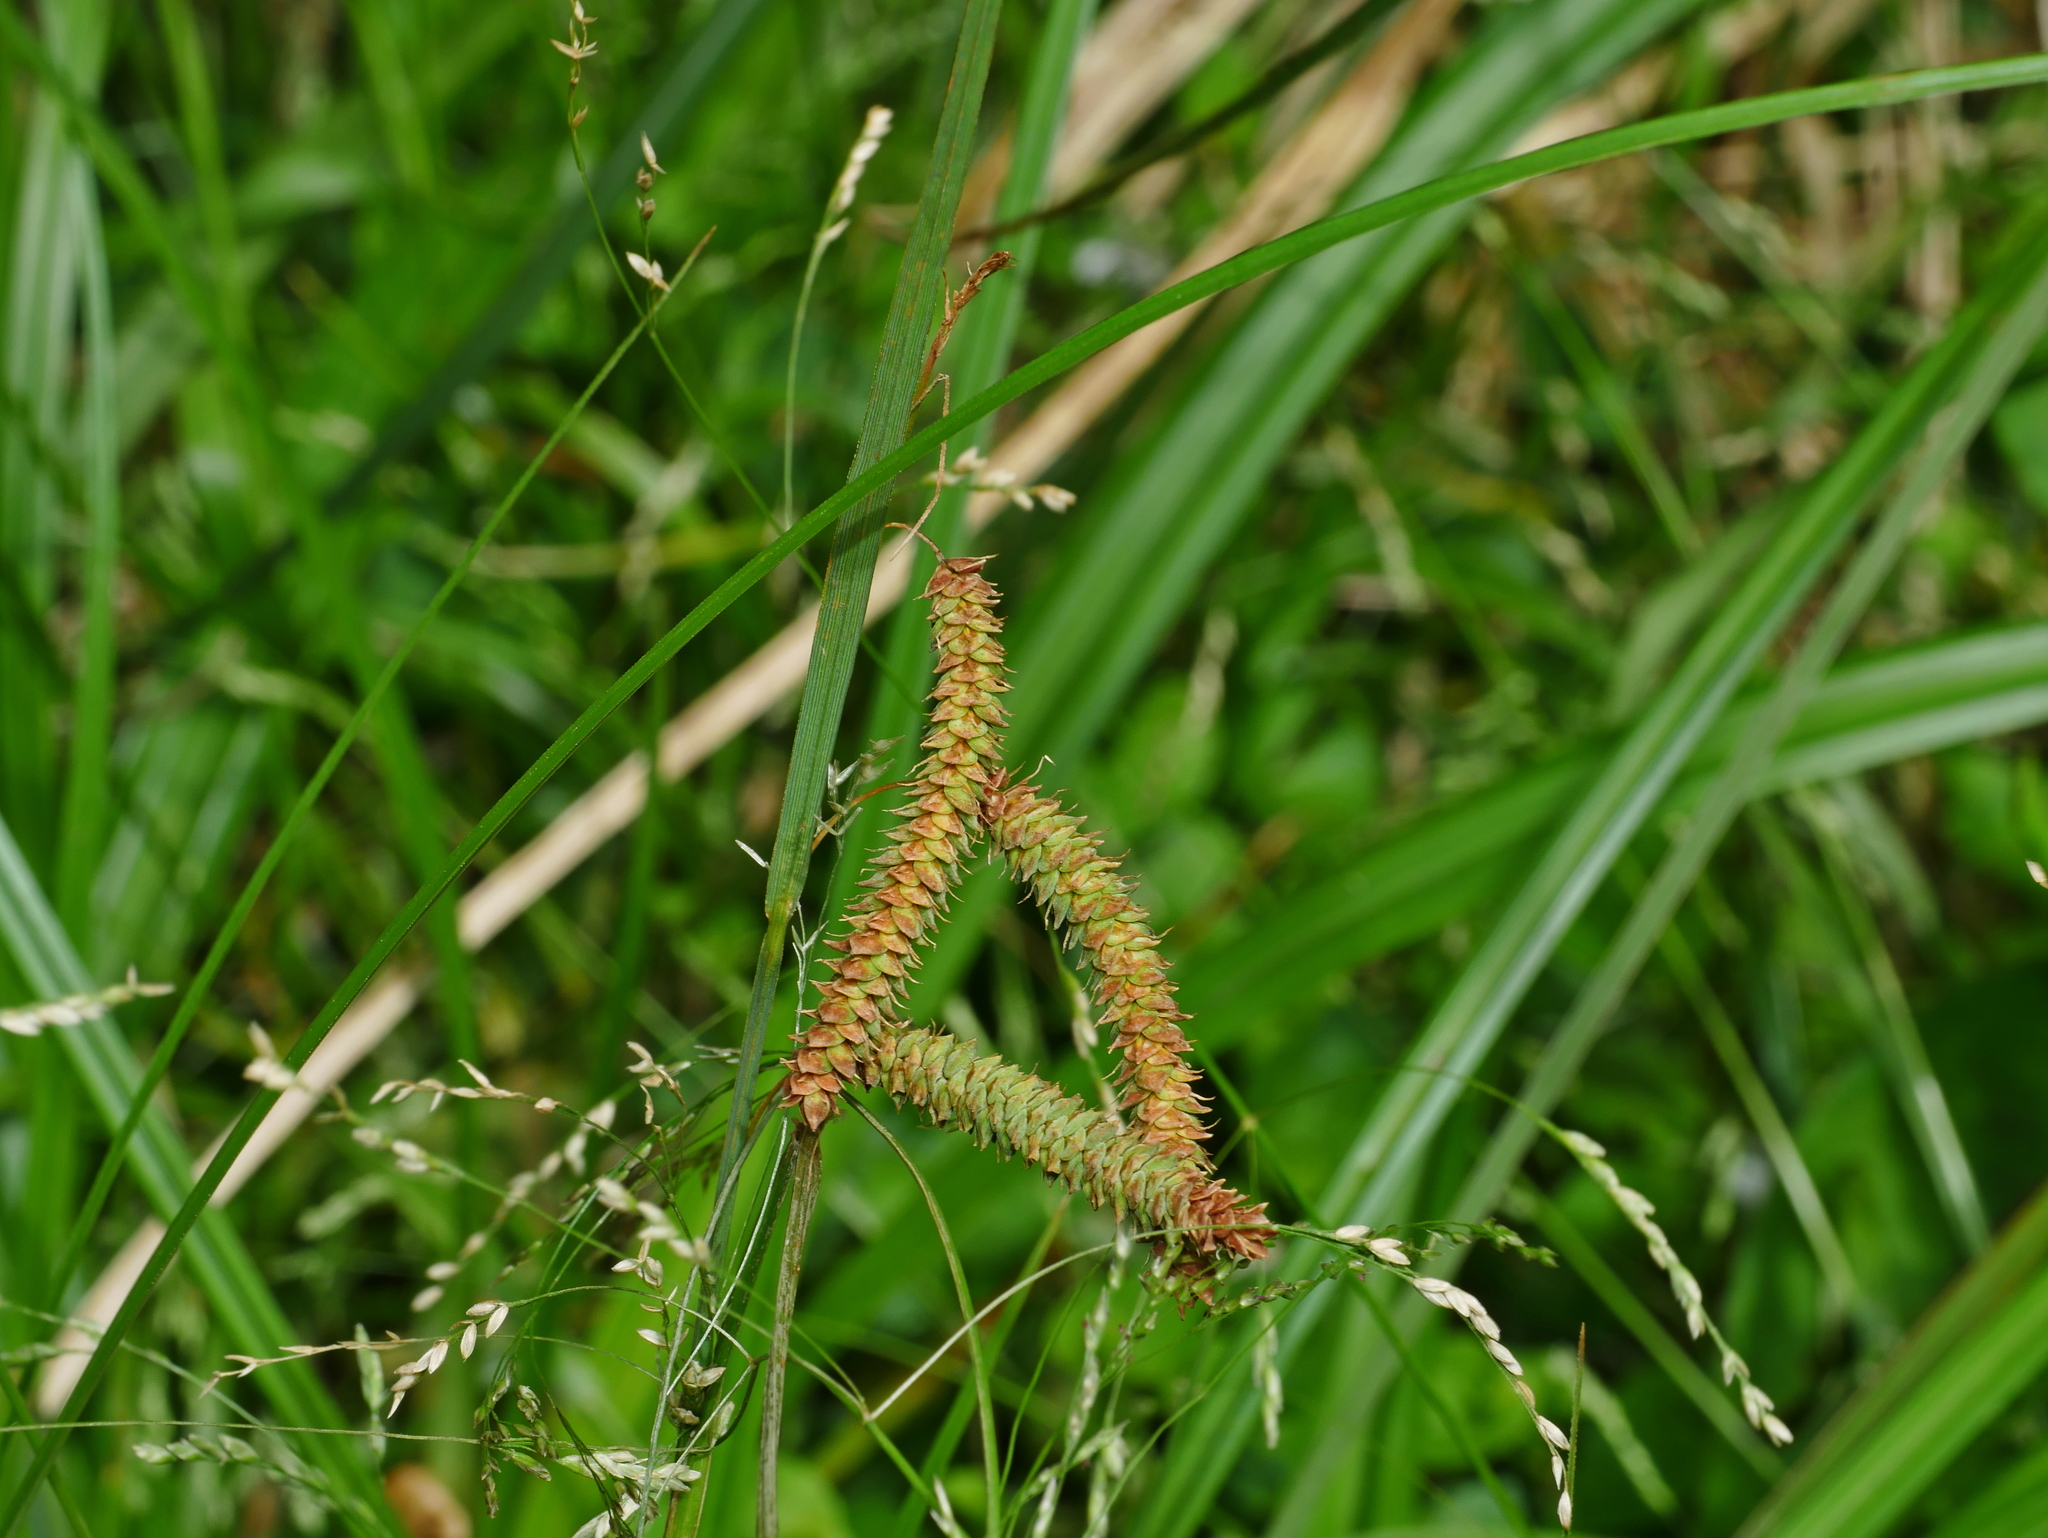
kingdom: Plantae
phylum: Tracheophyta
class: Liliopsida
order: Poales
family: Cyperaceae
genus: Carex
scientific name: Carex phacota
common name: Lakeshore sedge
